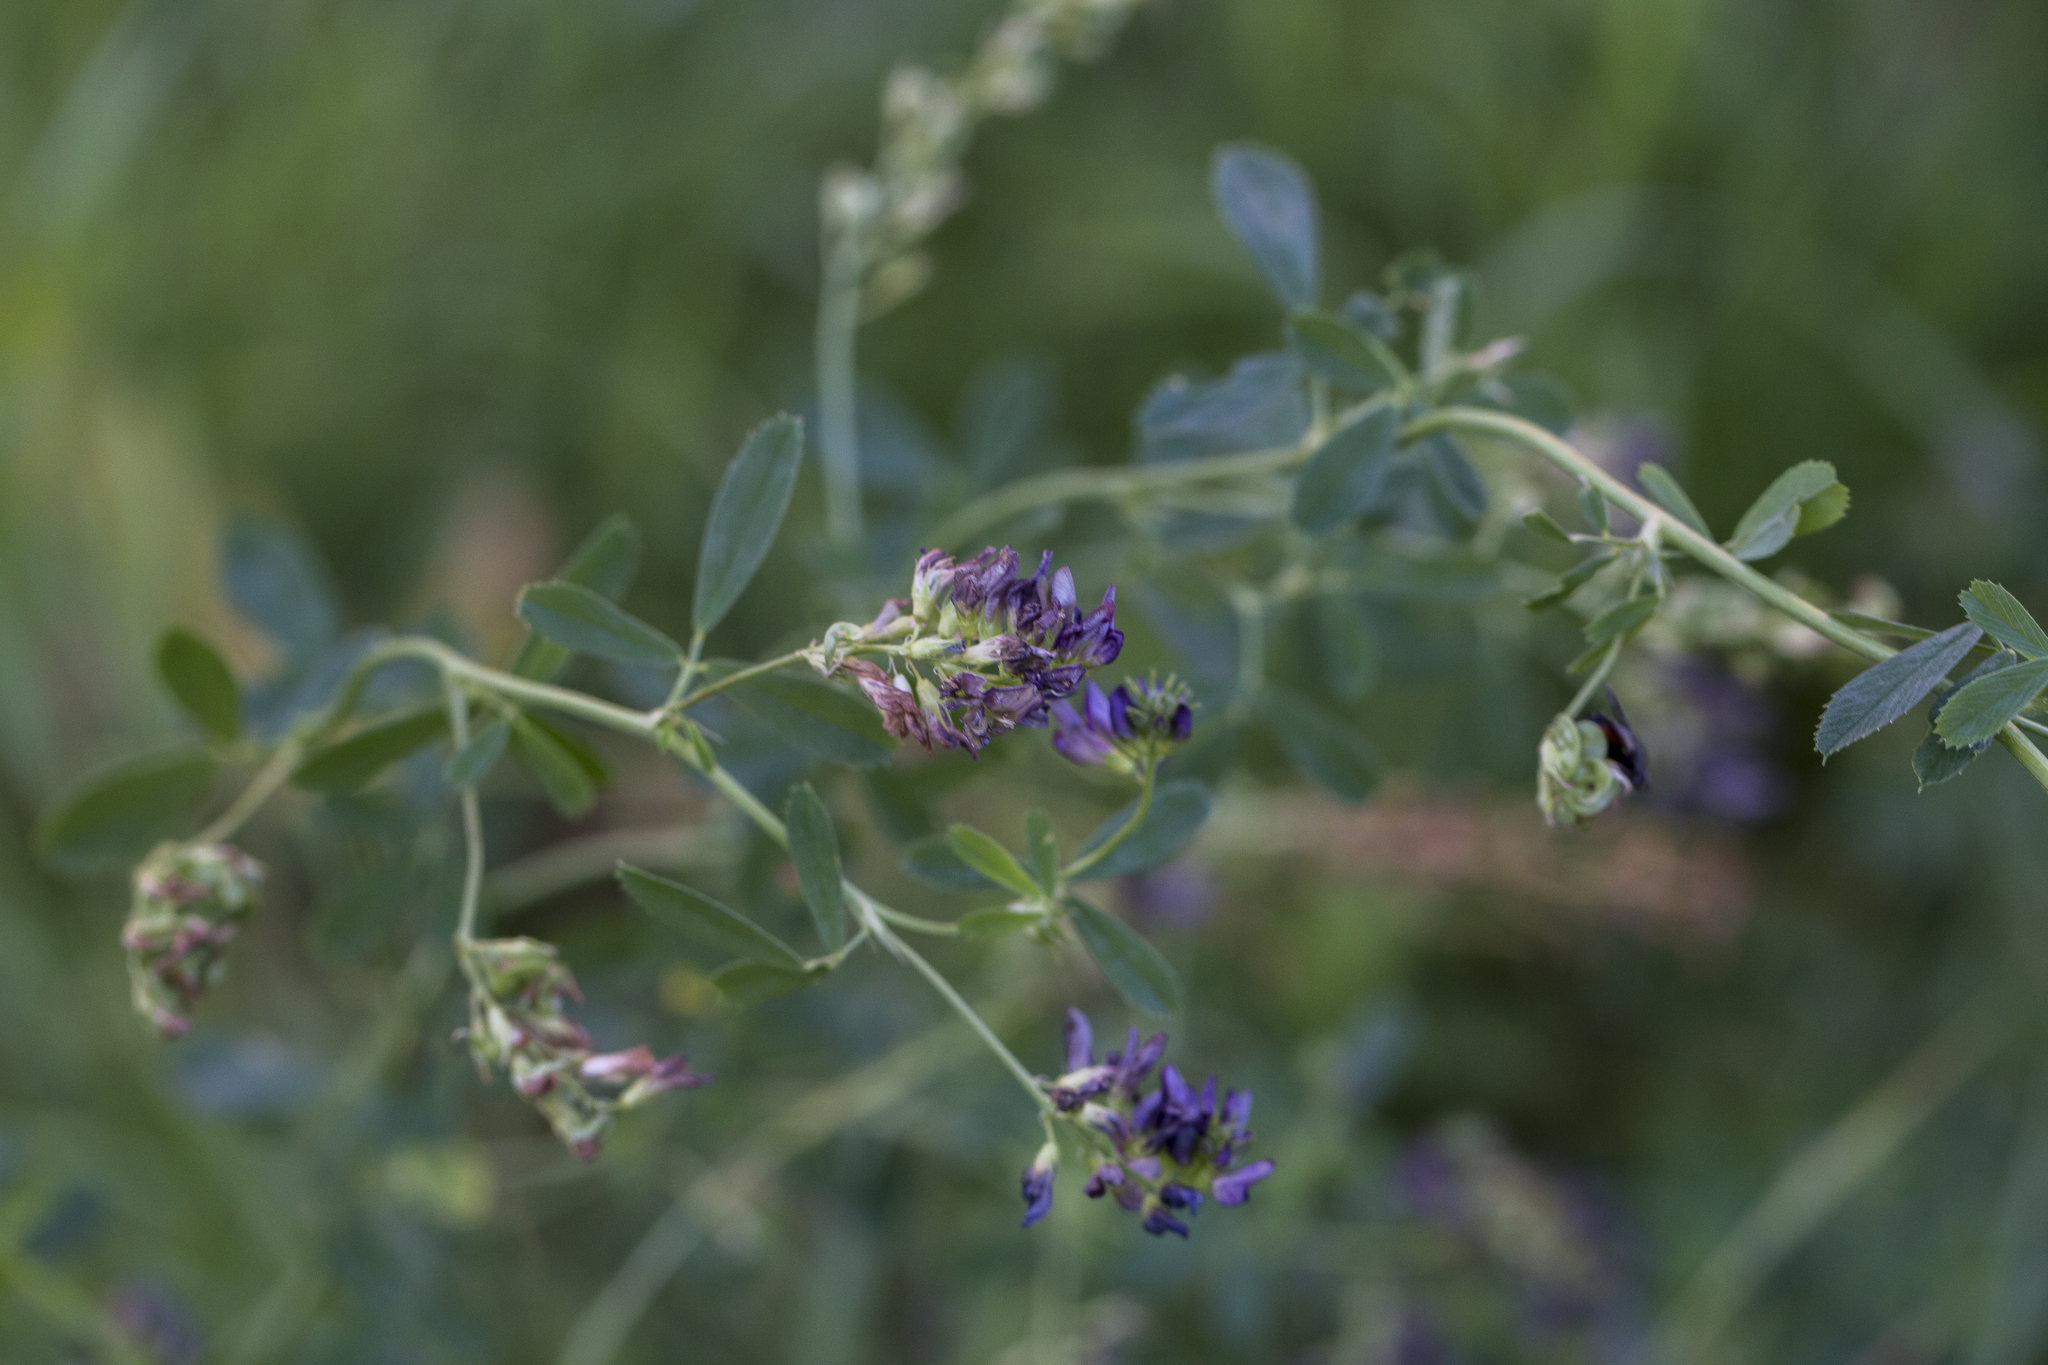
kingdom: Plantae
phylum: Tracheophyta
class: Magnoliopsida
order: Fabales
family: Fabaceae
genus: Medicago
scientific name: Medicago sativa
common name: Alfalfa
